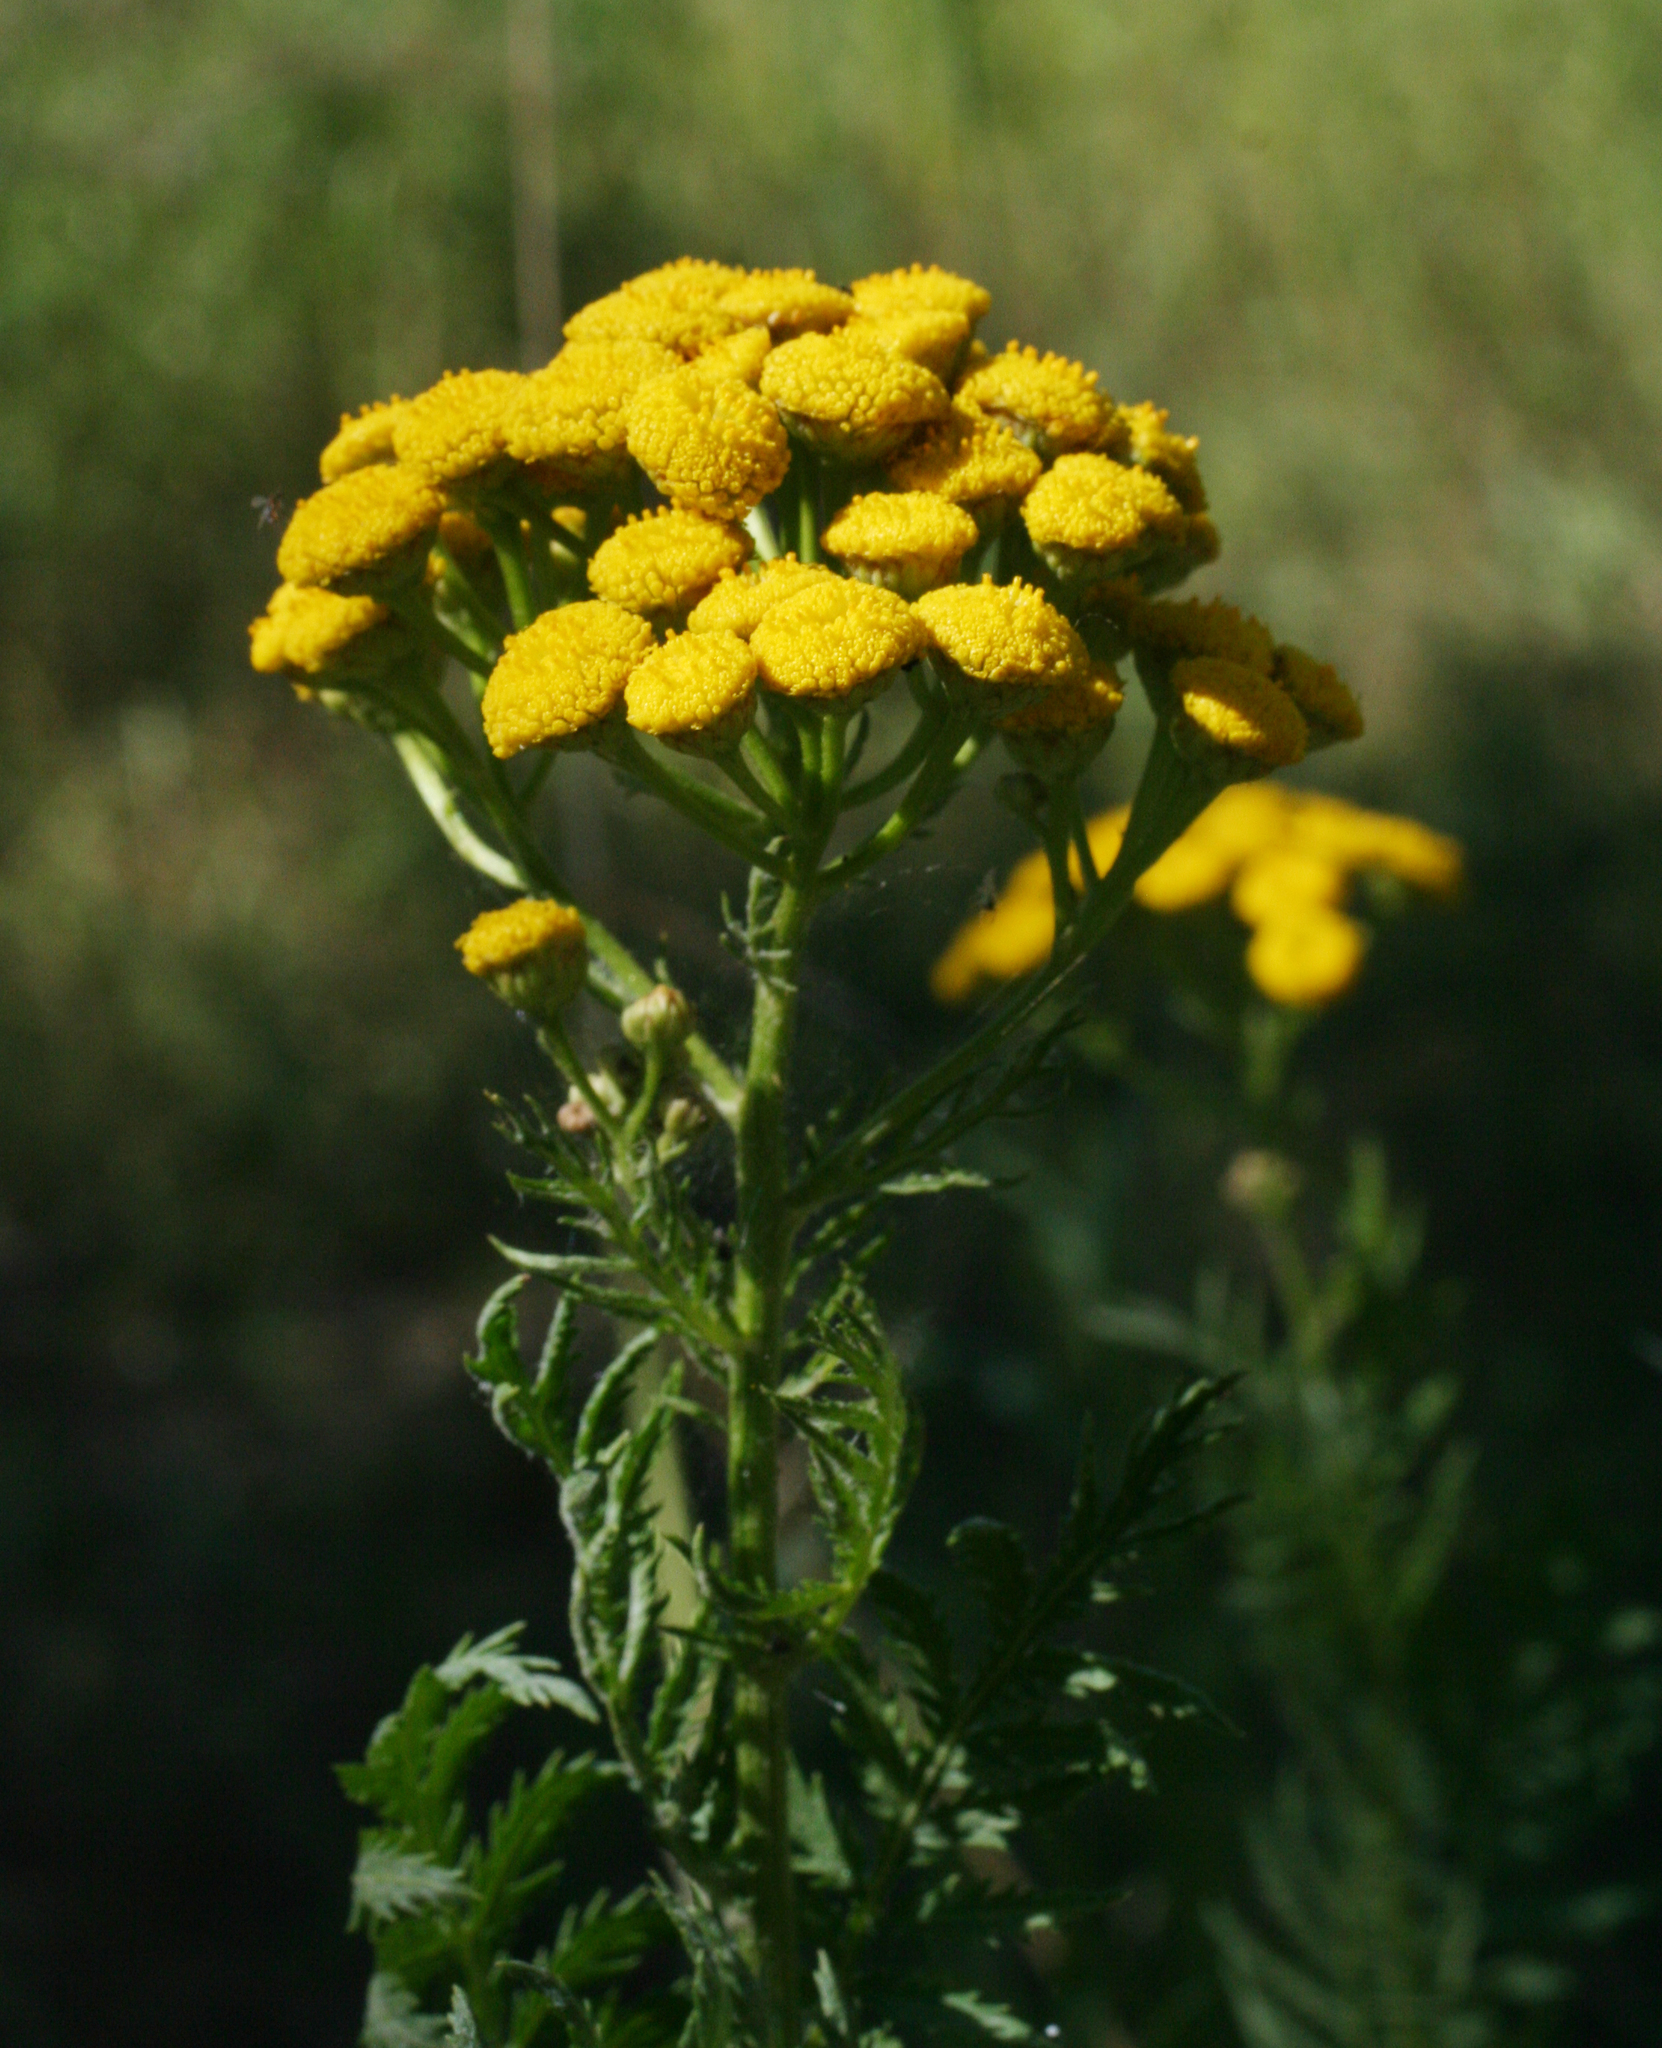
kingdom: Plantae
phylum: Tracheophyta
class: Magnoliopsida
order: Asterales
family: Asteraceae
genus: Tanacetum
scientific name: Tanacetum vulgare
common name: Common tansy
